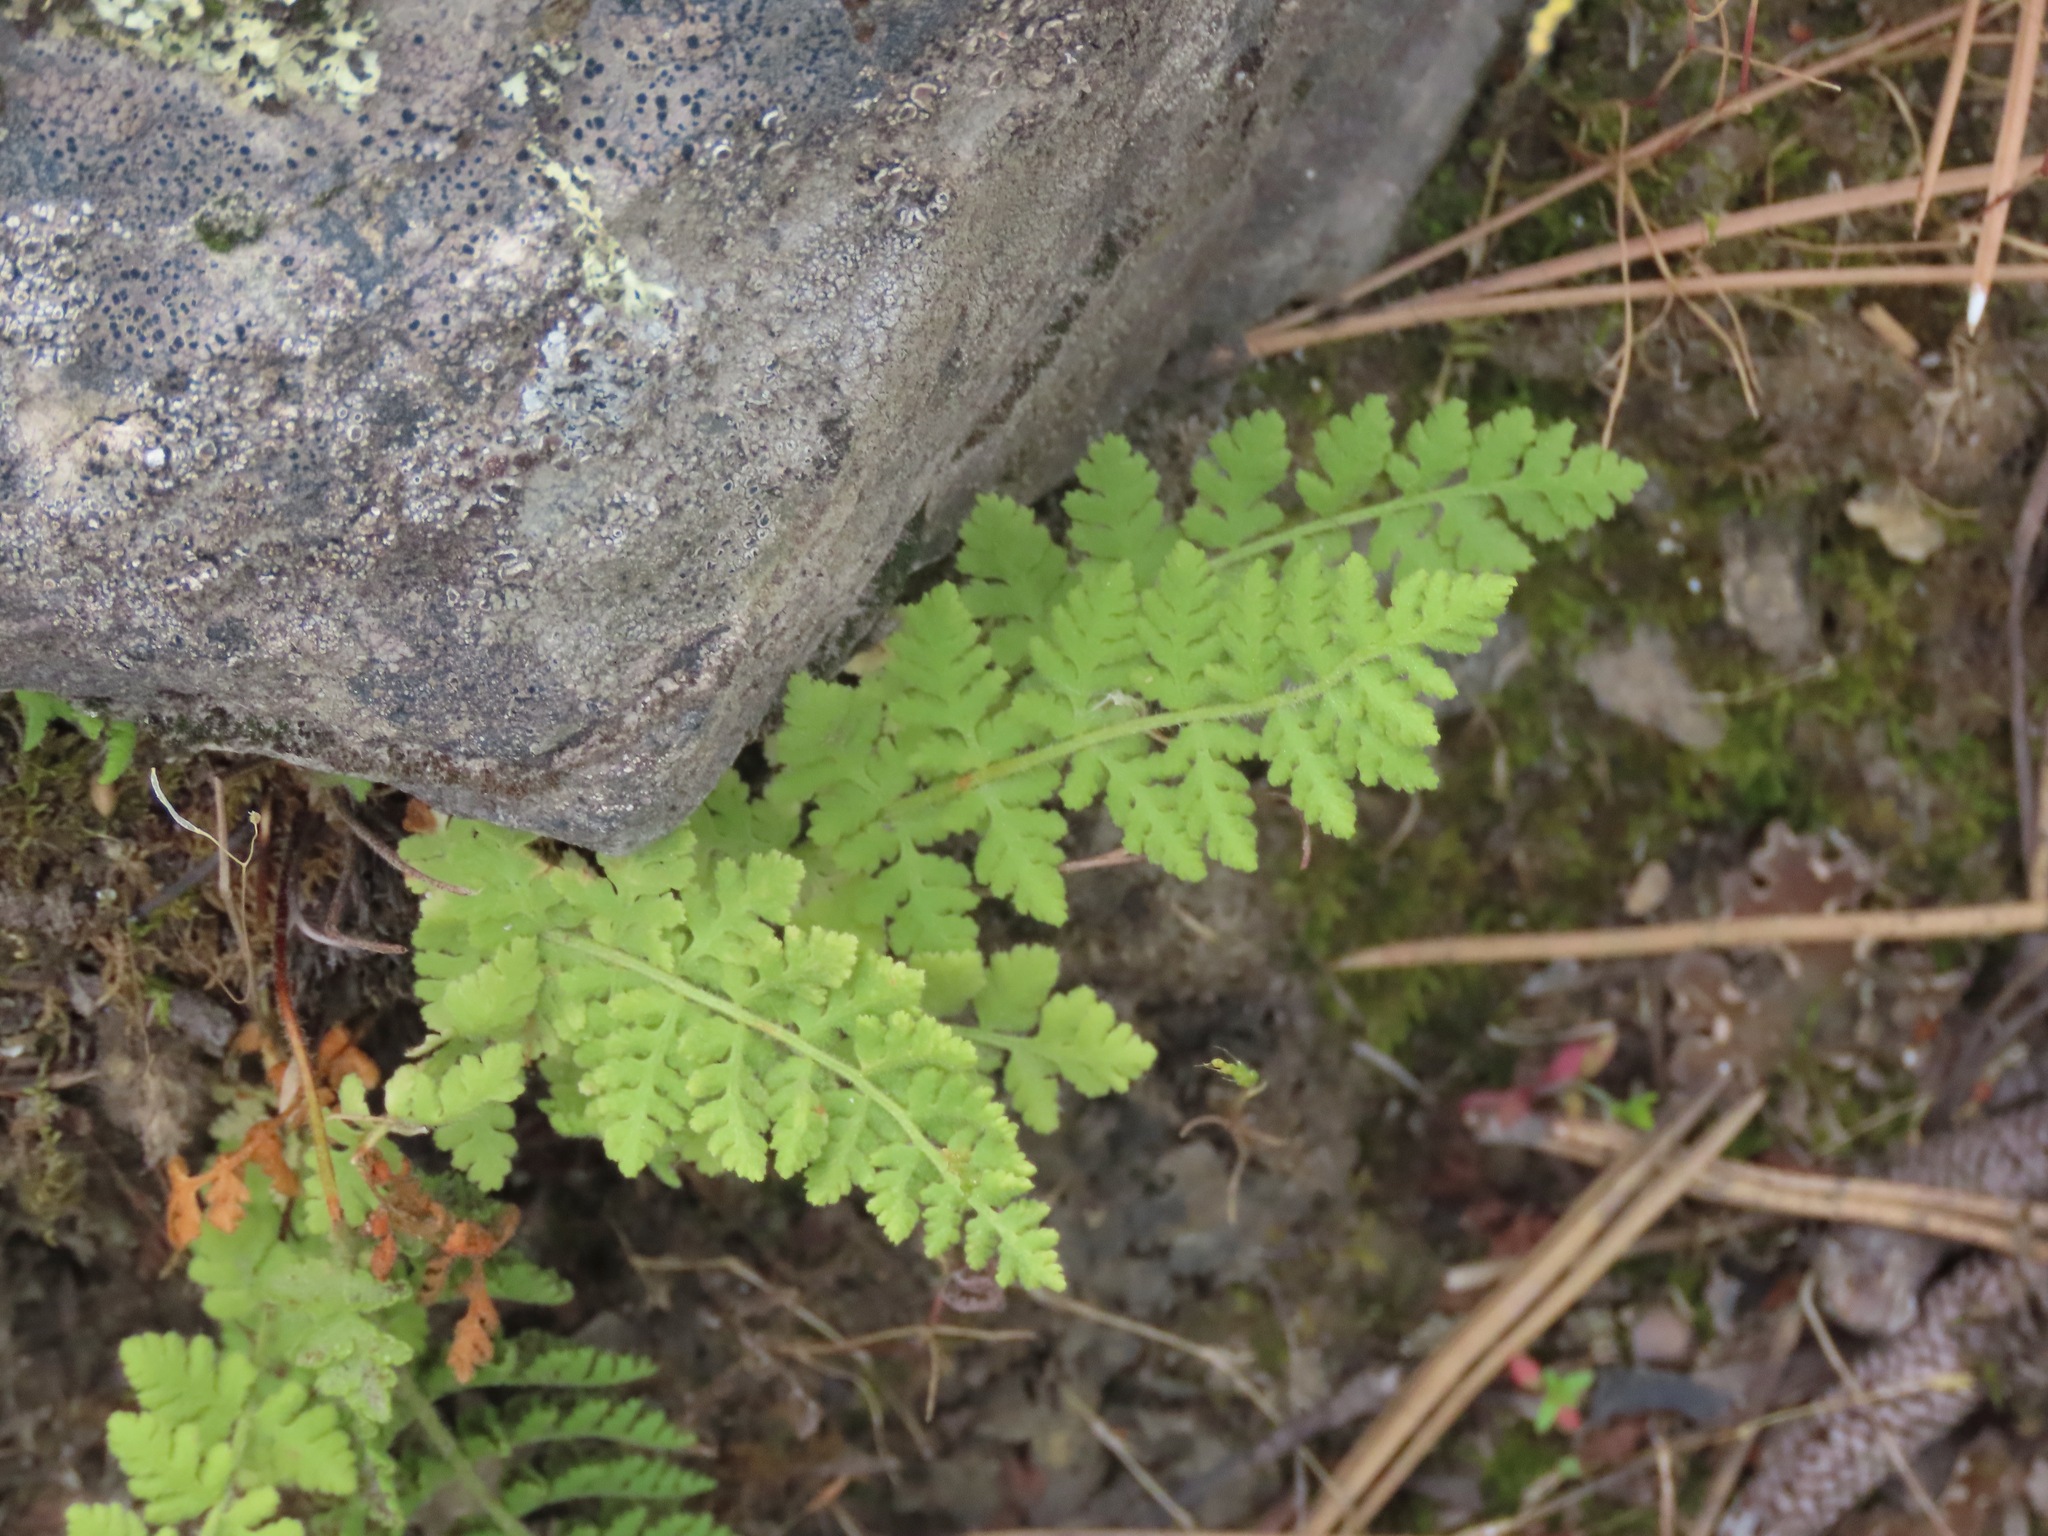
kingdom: Plantae
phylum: Tracheophyta
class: Polypodiopsida
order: Polypodiales
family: Woodsiaceae
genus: Physematium
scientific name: Physematium scopulinum
